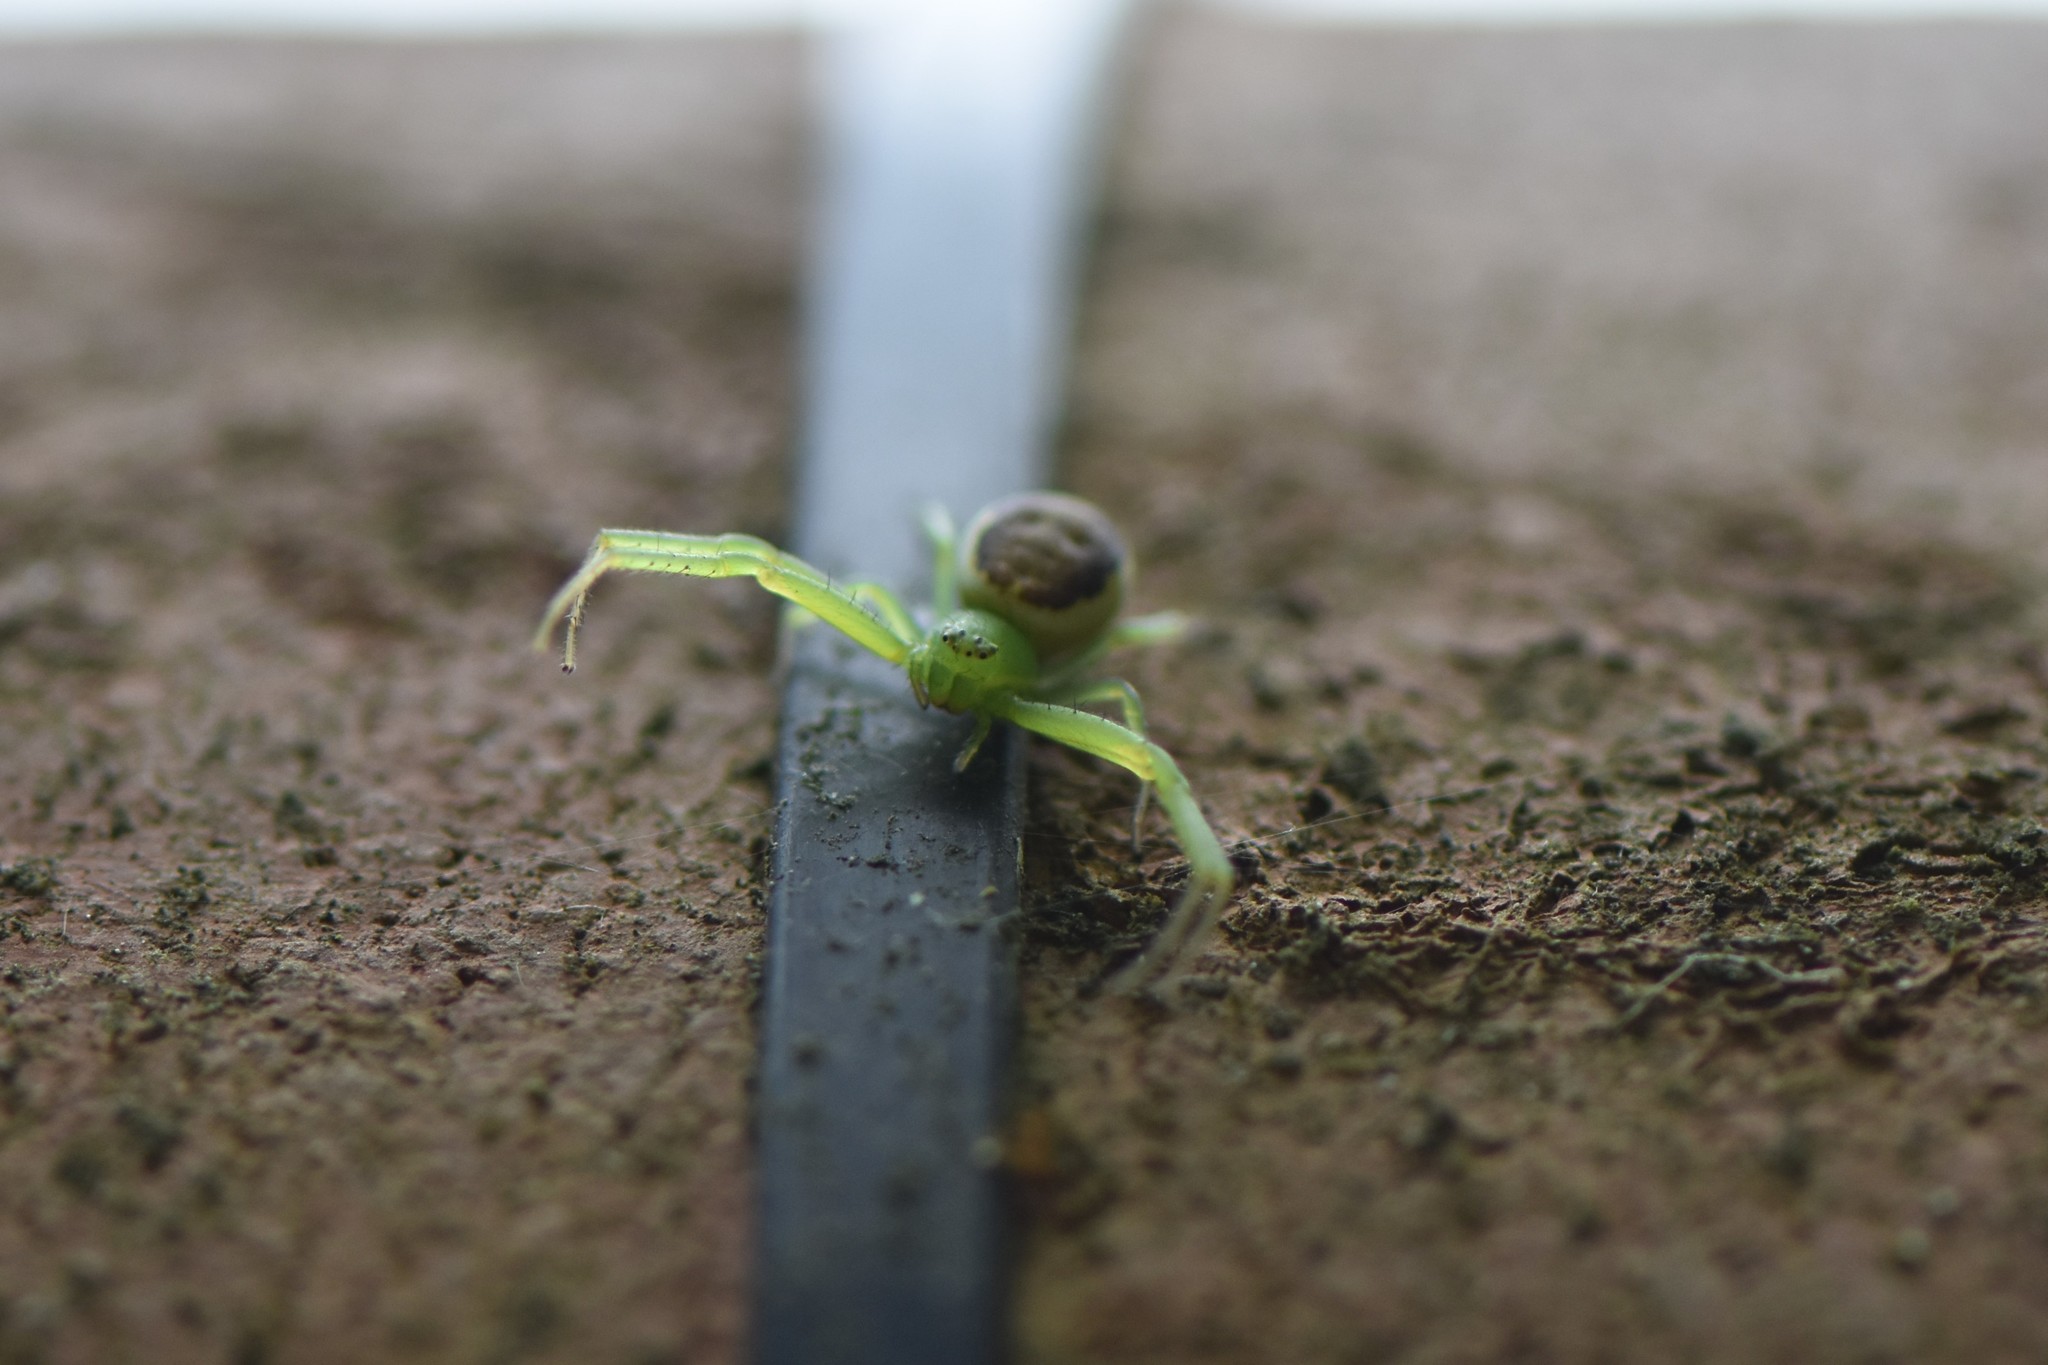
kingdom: Animalia
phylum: Arthropoda
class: Arachnida
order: Araneae
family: Thomisidae
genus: Diaea
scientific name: Diaea dorsata
